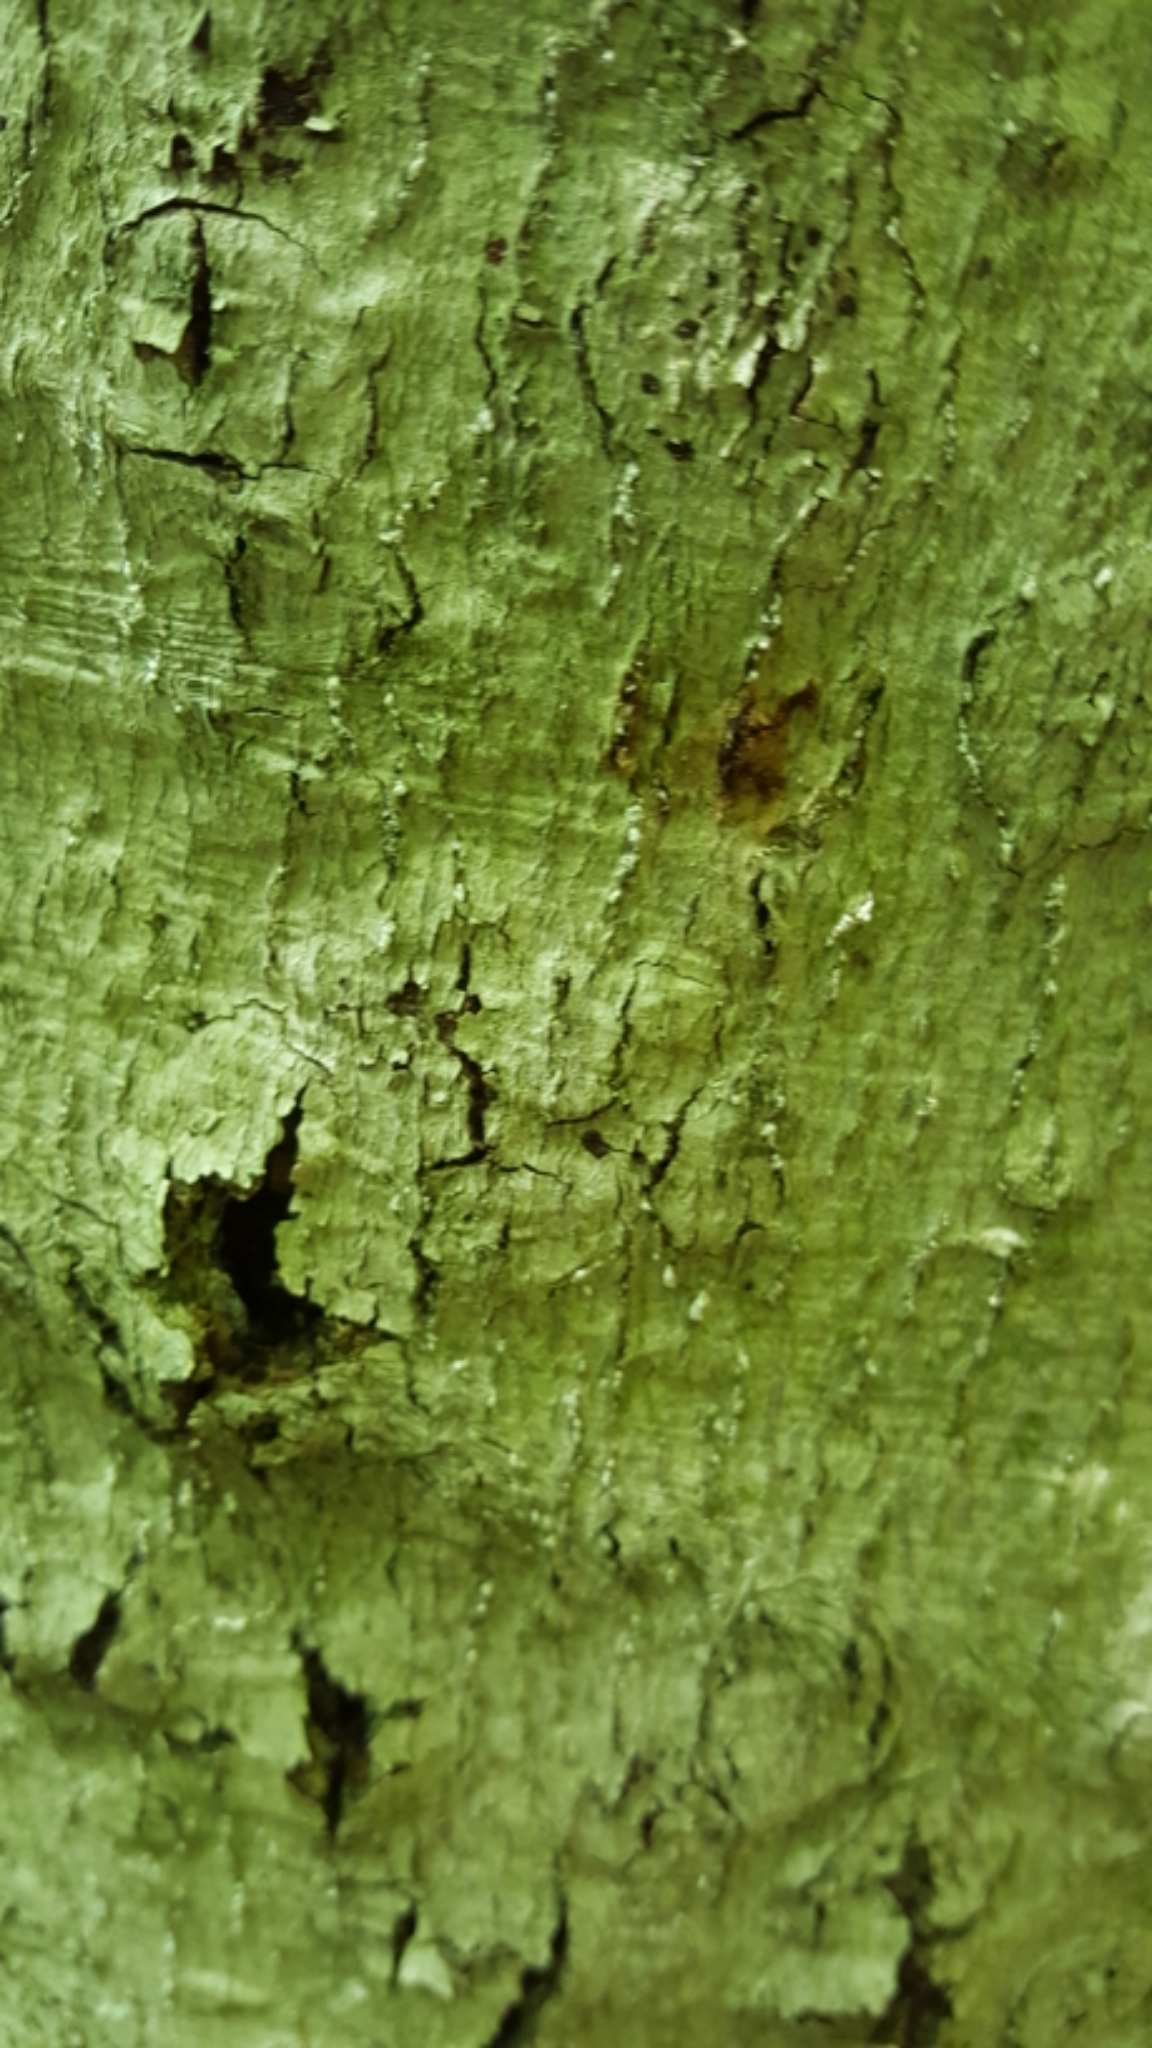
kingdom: Animalia
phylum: Arthropoda
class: Insecta
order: Hemiptera
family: Eriococcidae
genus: Cryptococcus
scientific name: Cryptococcus fagisuga
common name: Beech scale
